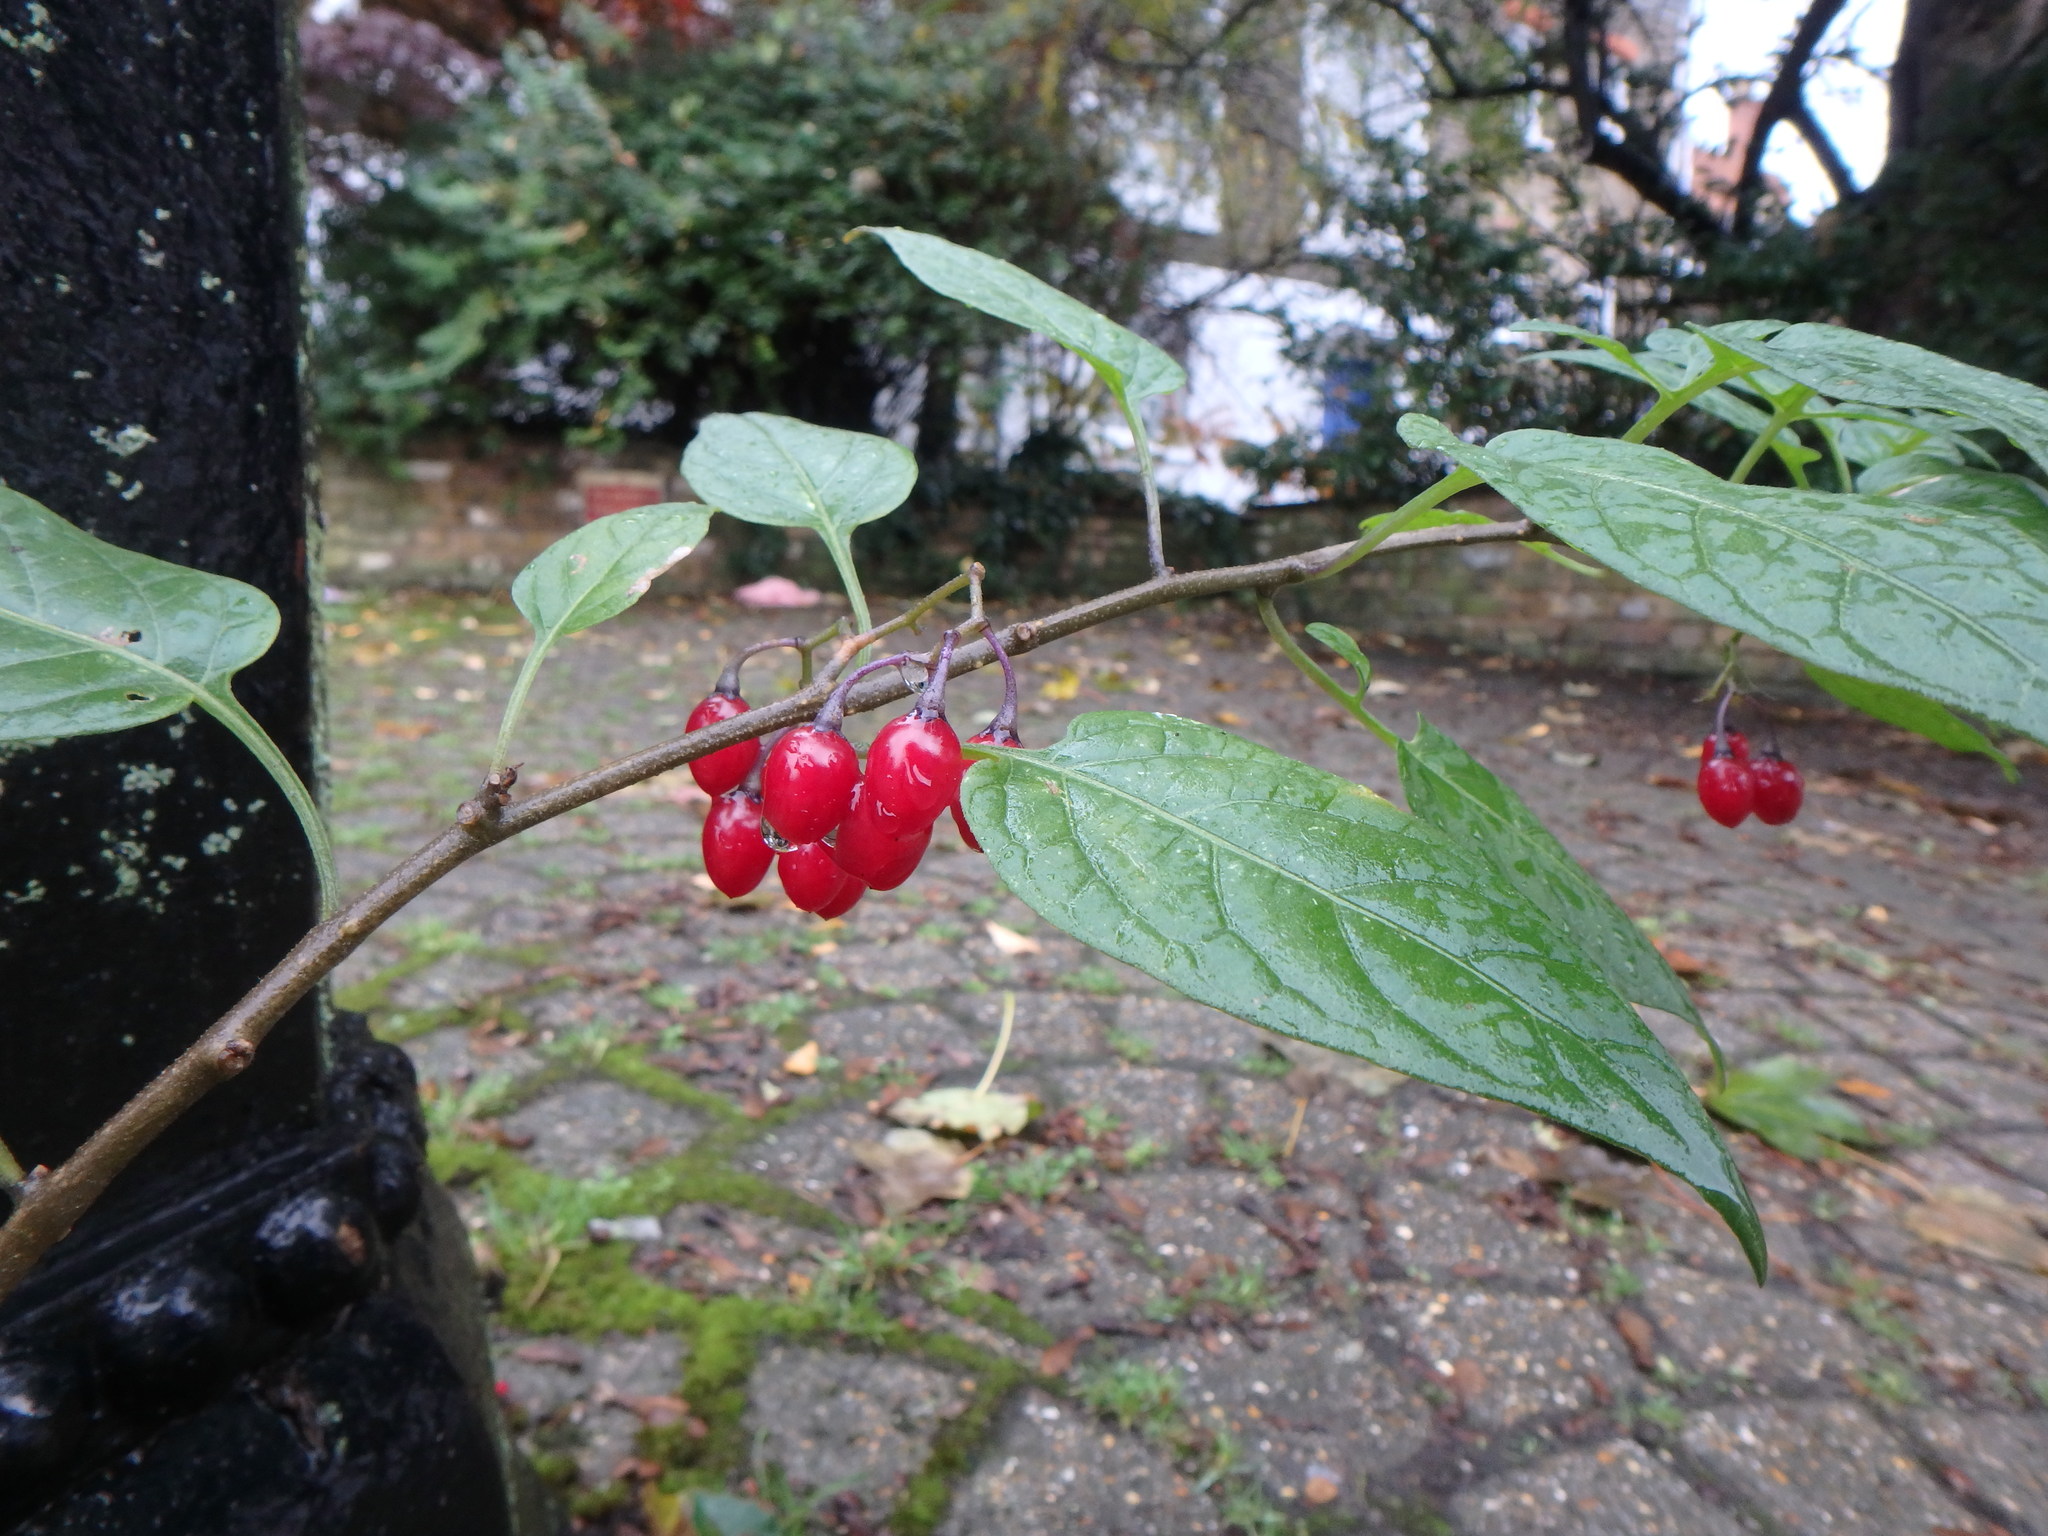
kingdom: Plantae
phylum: Tracheophyta
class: Magnoliopsida
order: Solanales
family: Solanaceae
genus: Solanum
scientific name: Solanum dulcamara
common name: Climbing nightshade
